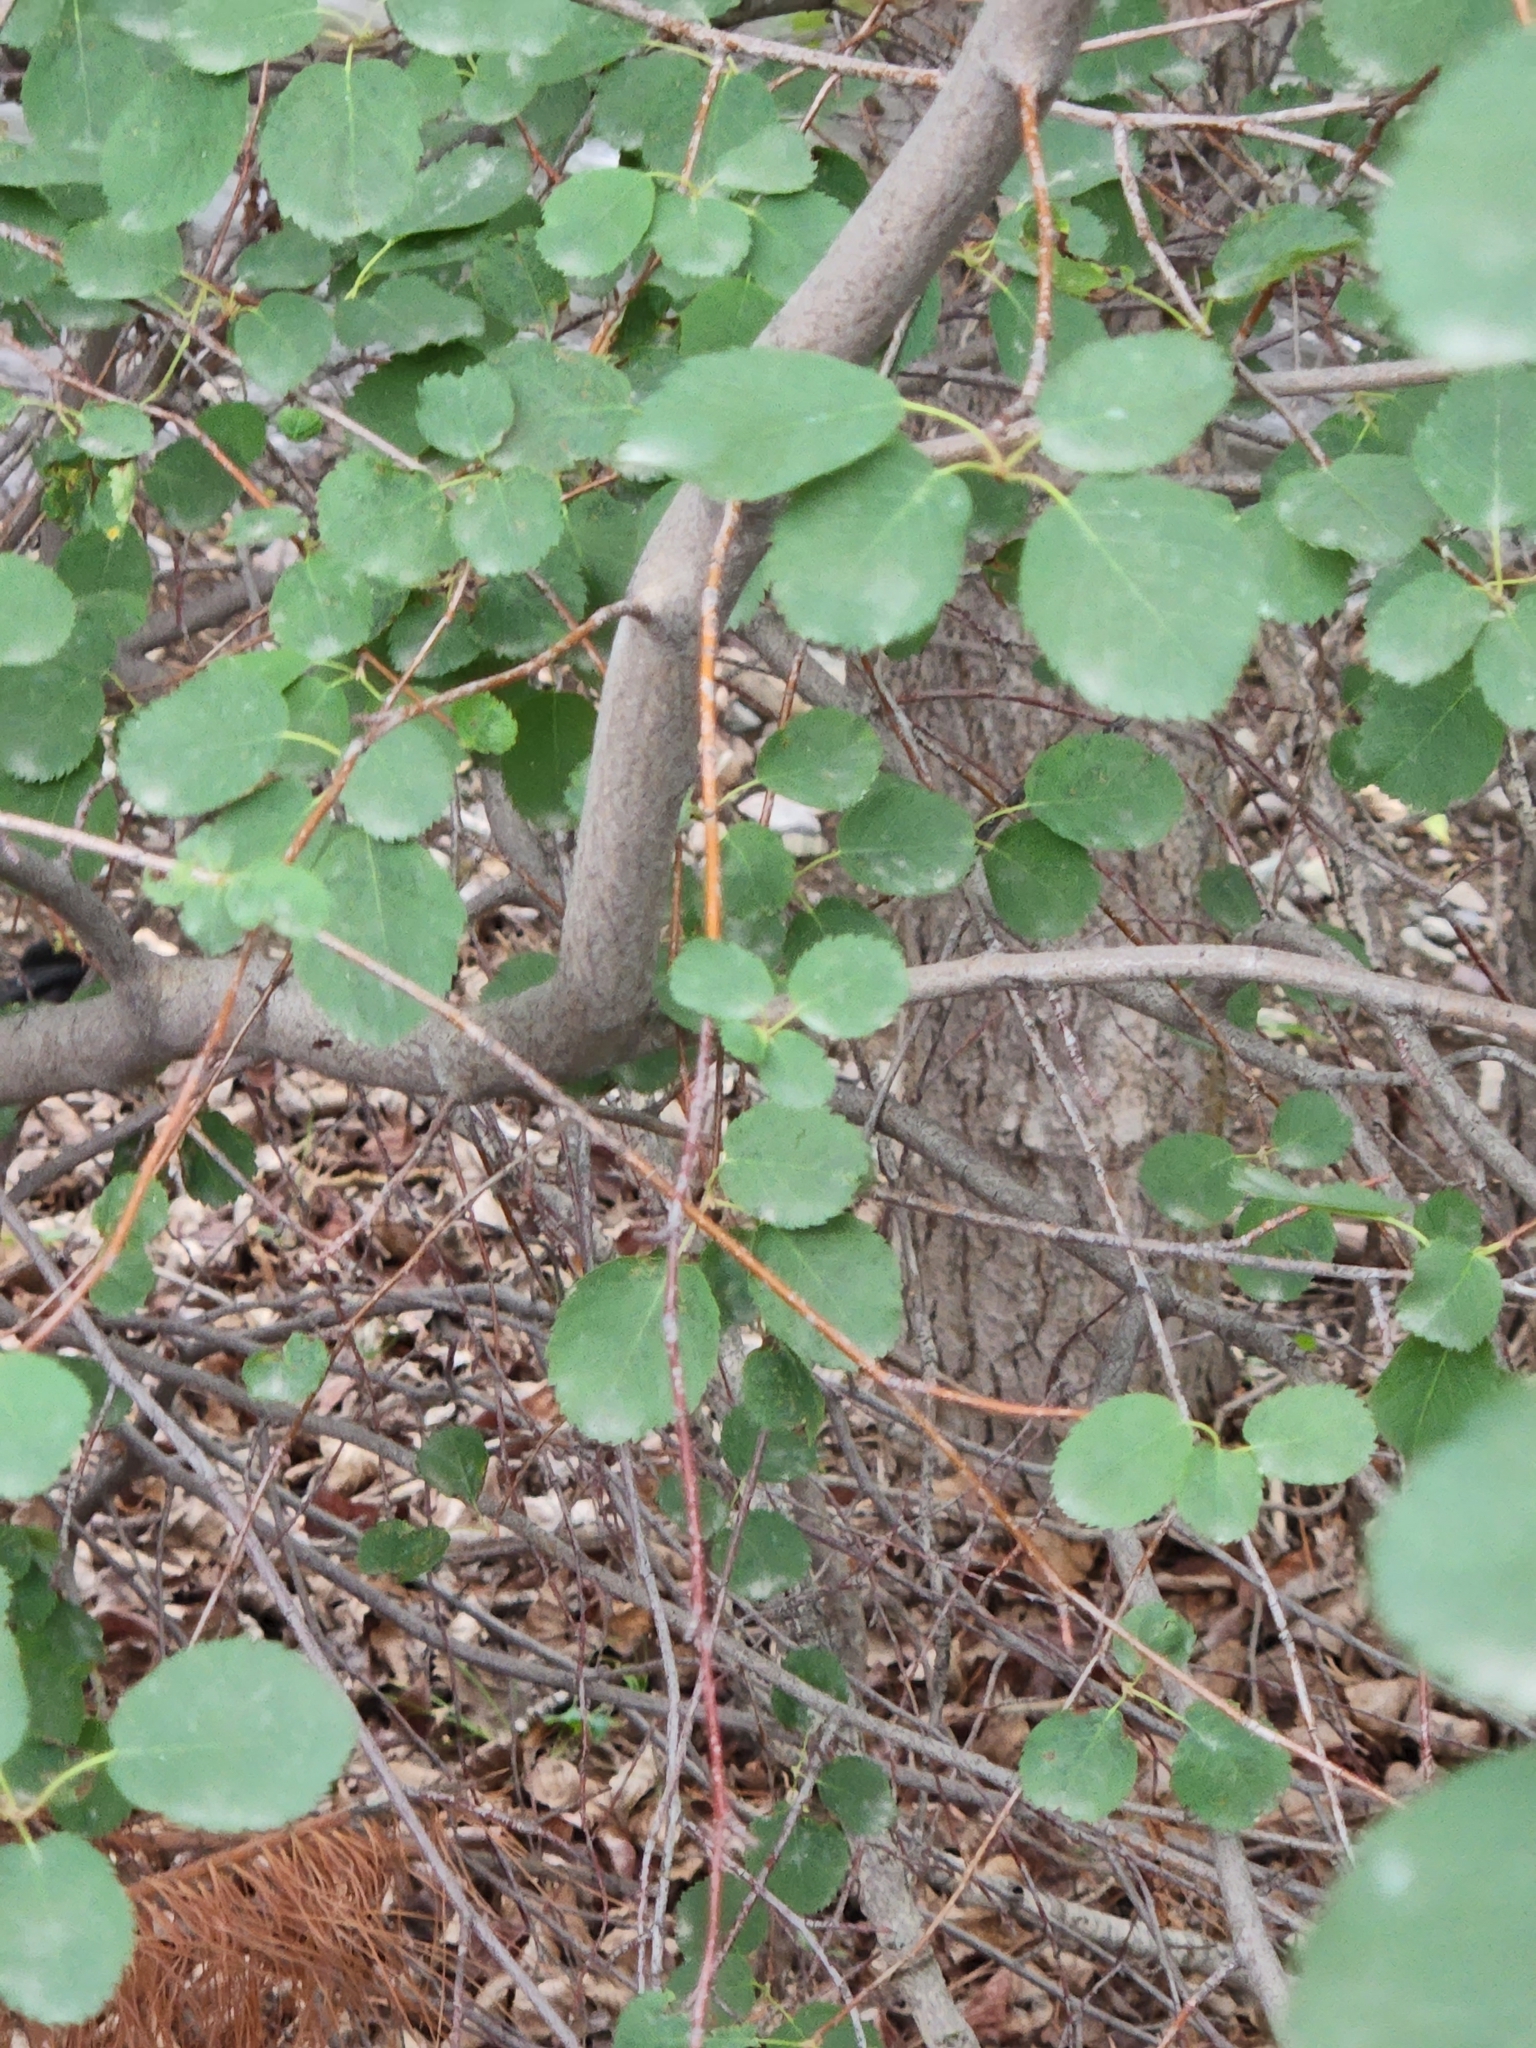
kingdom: Plantae
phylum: Tracheophyta
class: Magnoliopsida
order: Rosales
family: Rosaceae
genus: Amelanchier
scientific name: Amelanchier alnifolia
